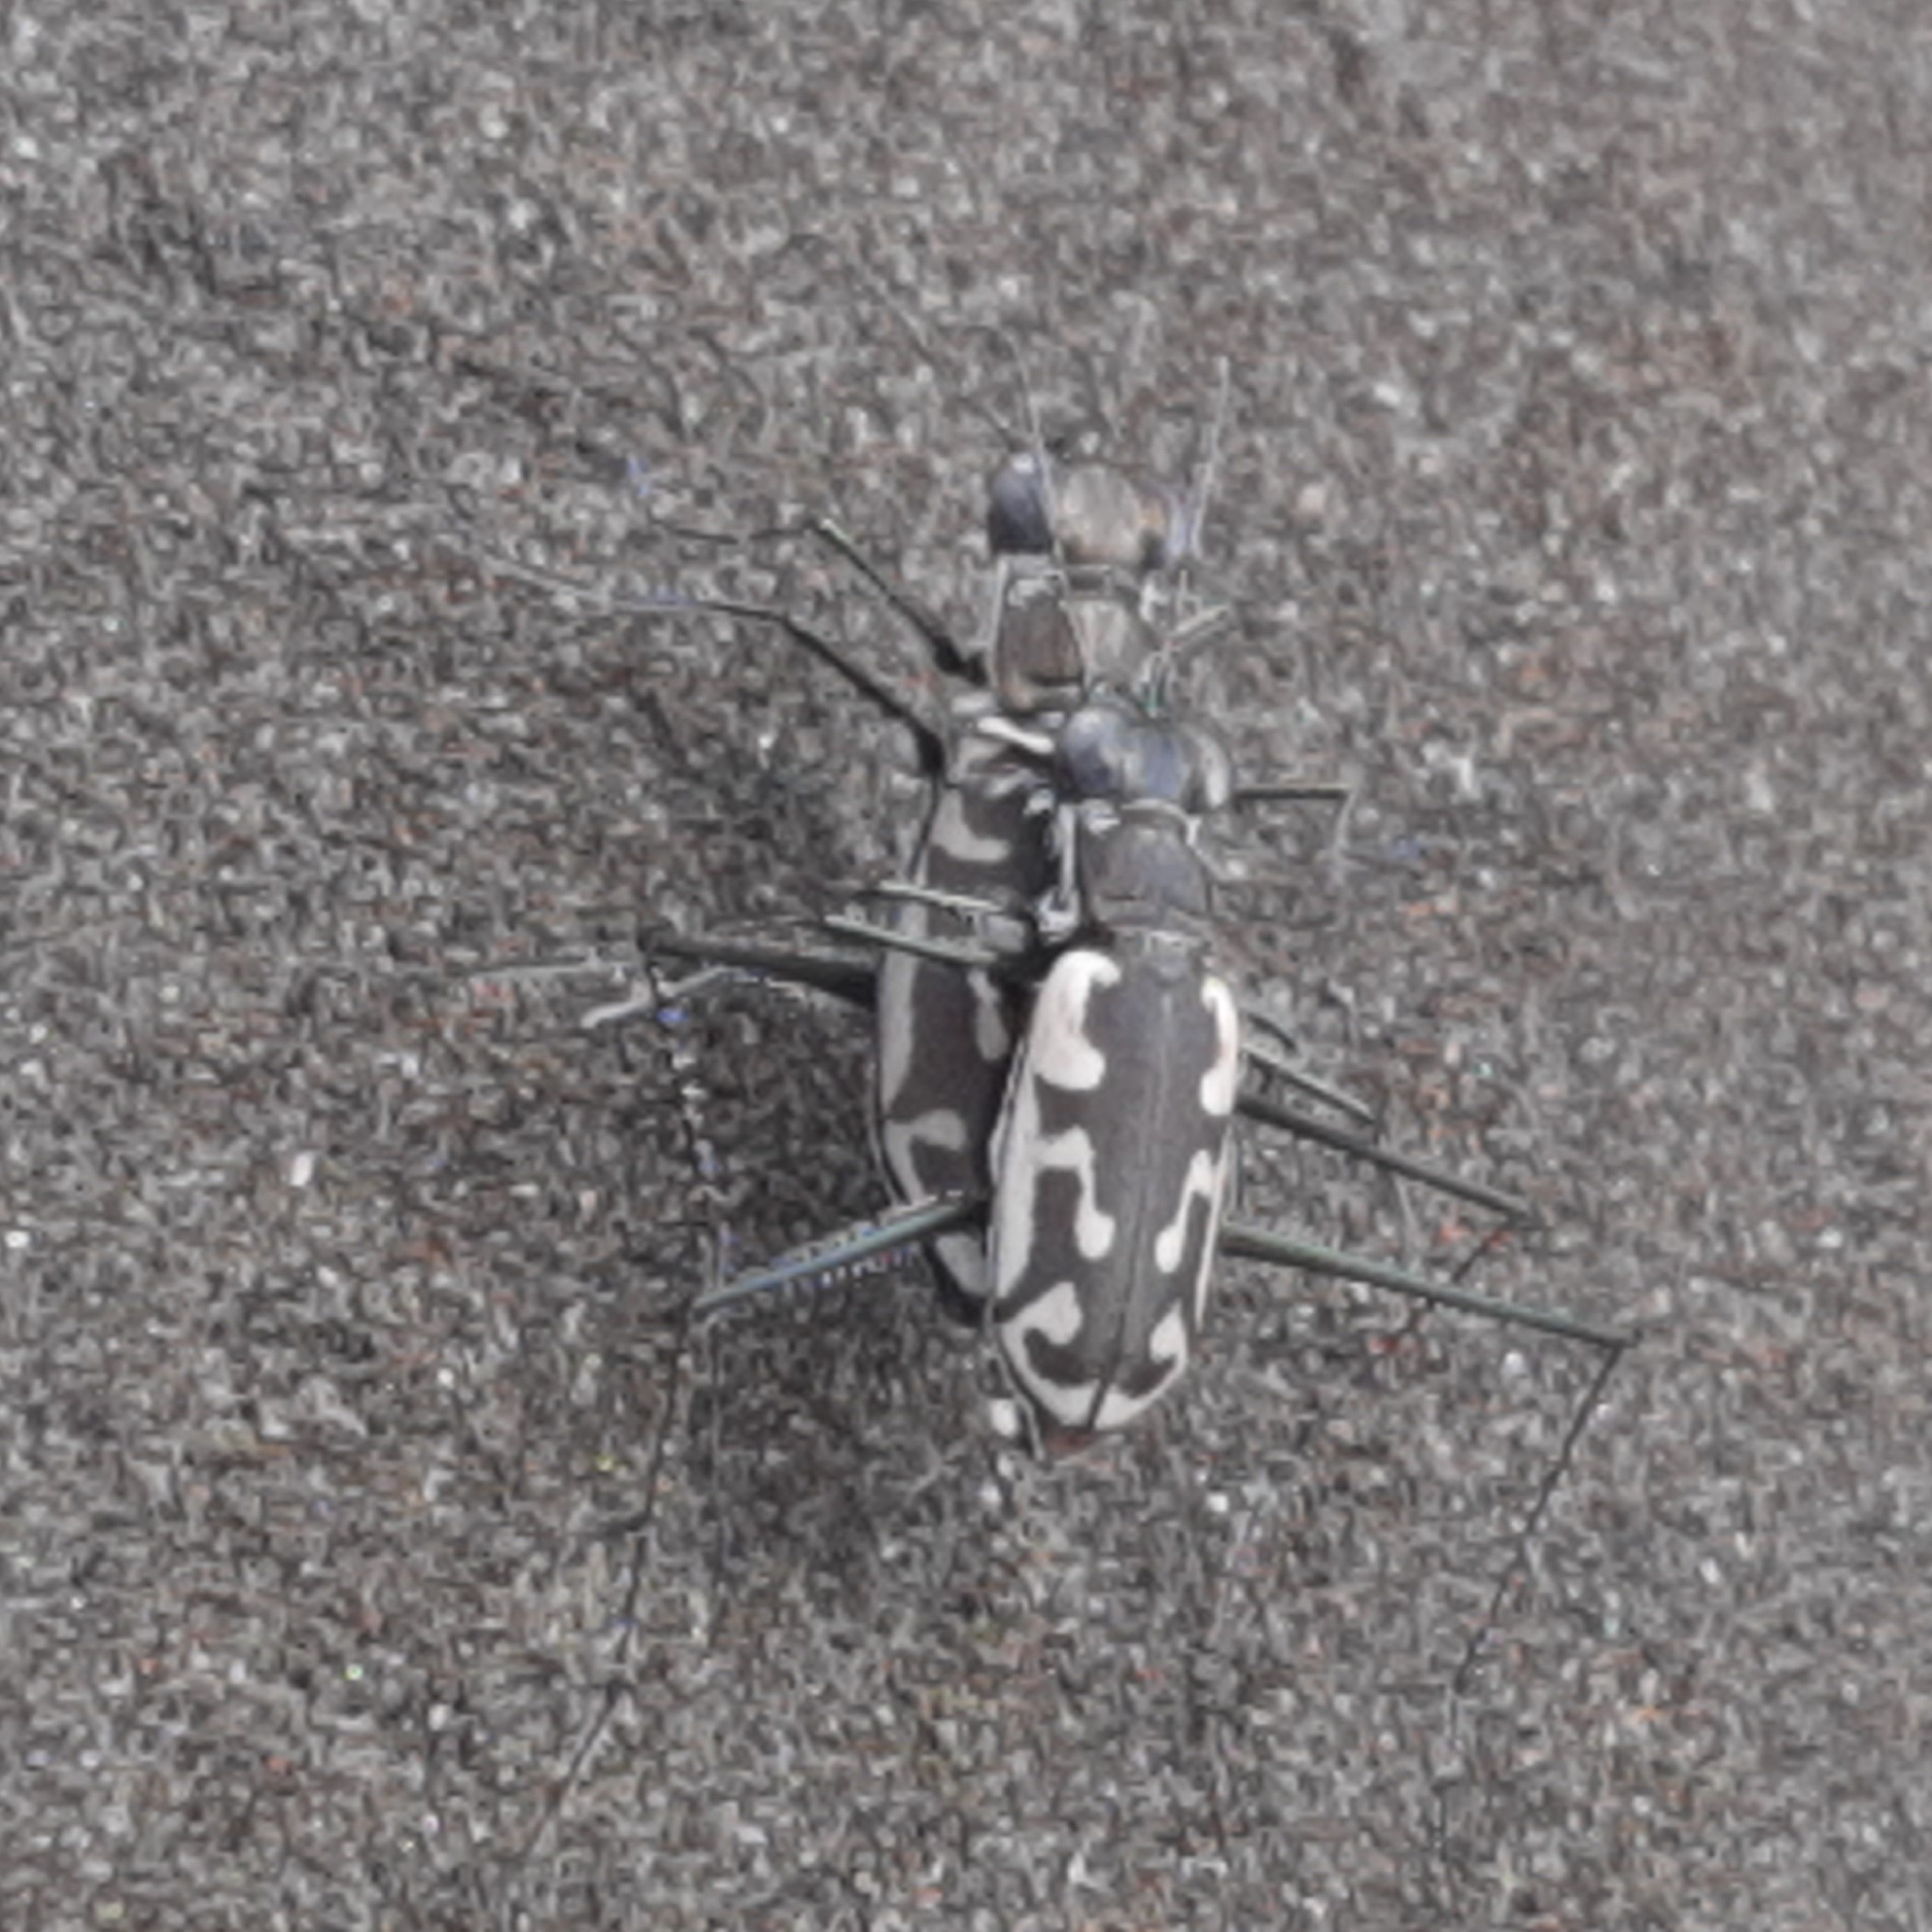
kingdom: Animalia
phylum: Arthropoda
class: Insecta
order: Coleoptera
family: Carabidae
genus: Opilidia
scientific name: Opilidia macrocnema
